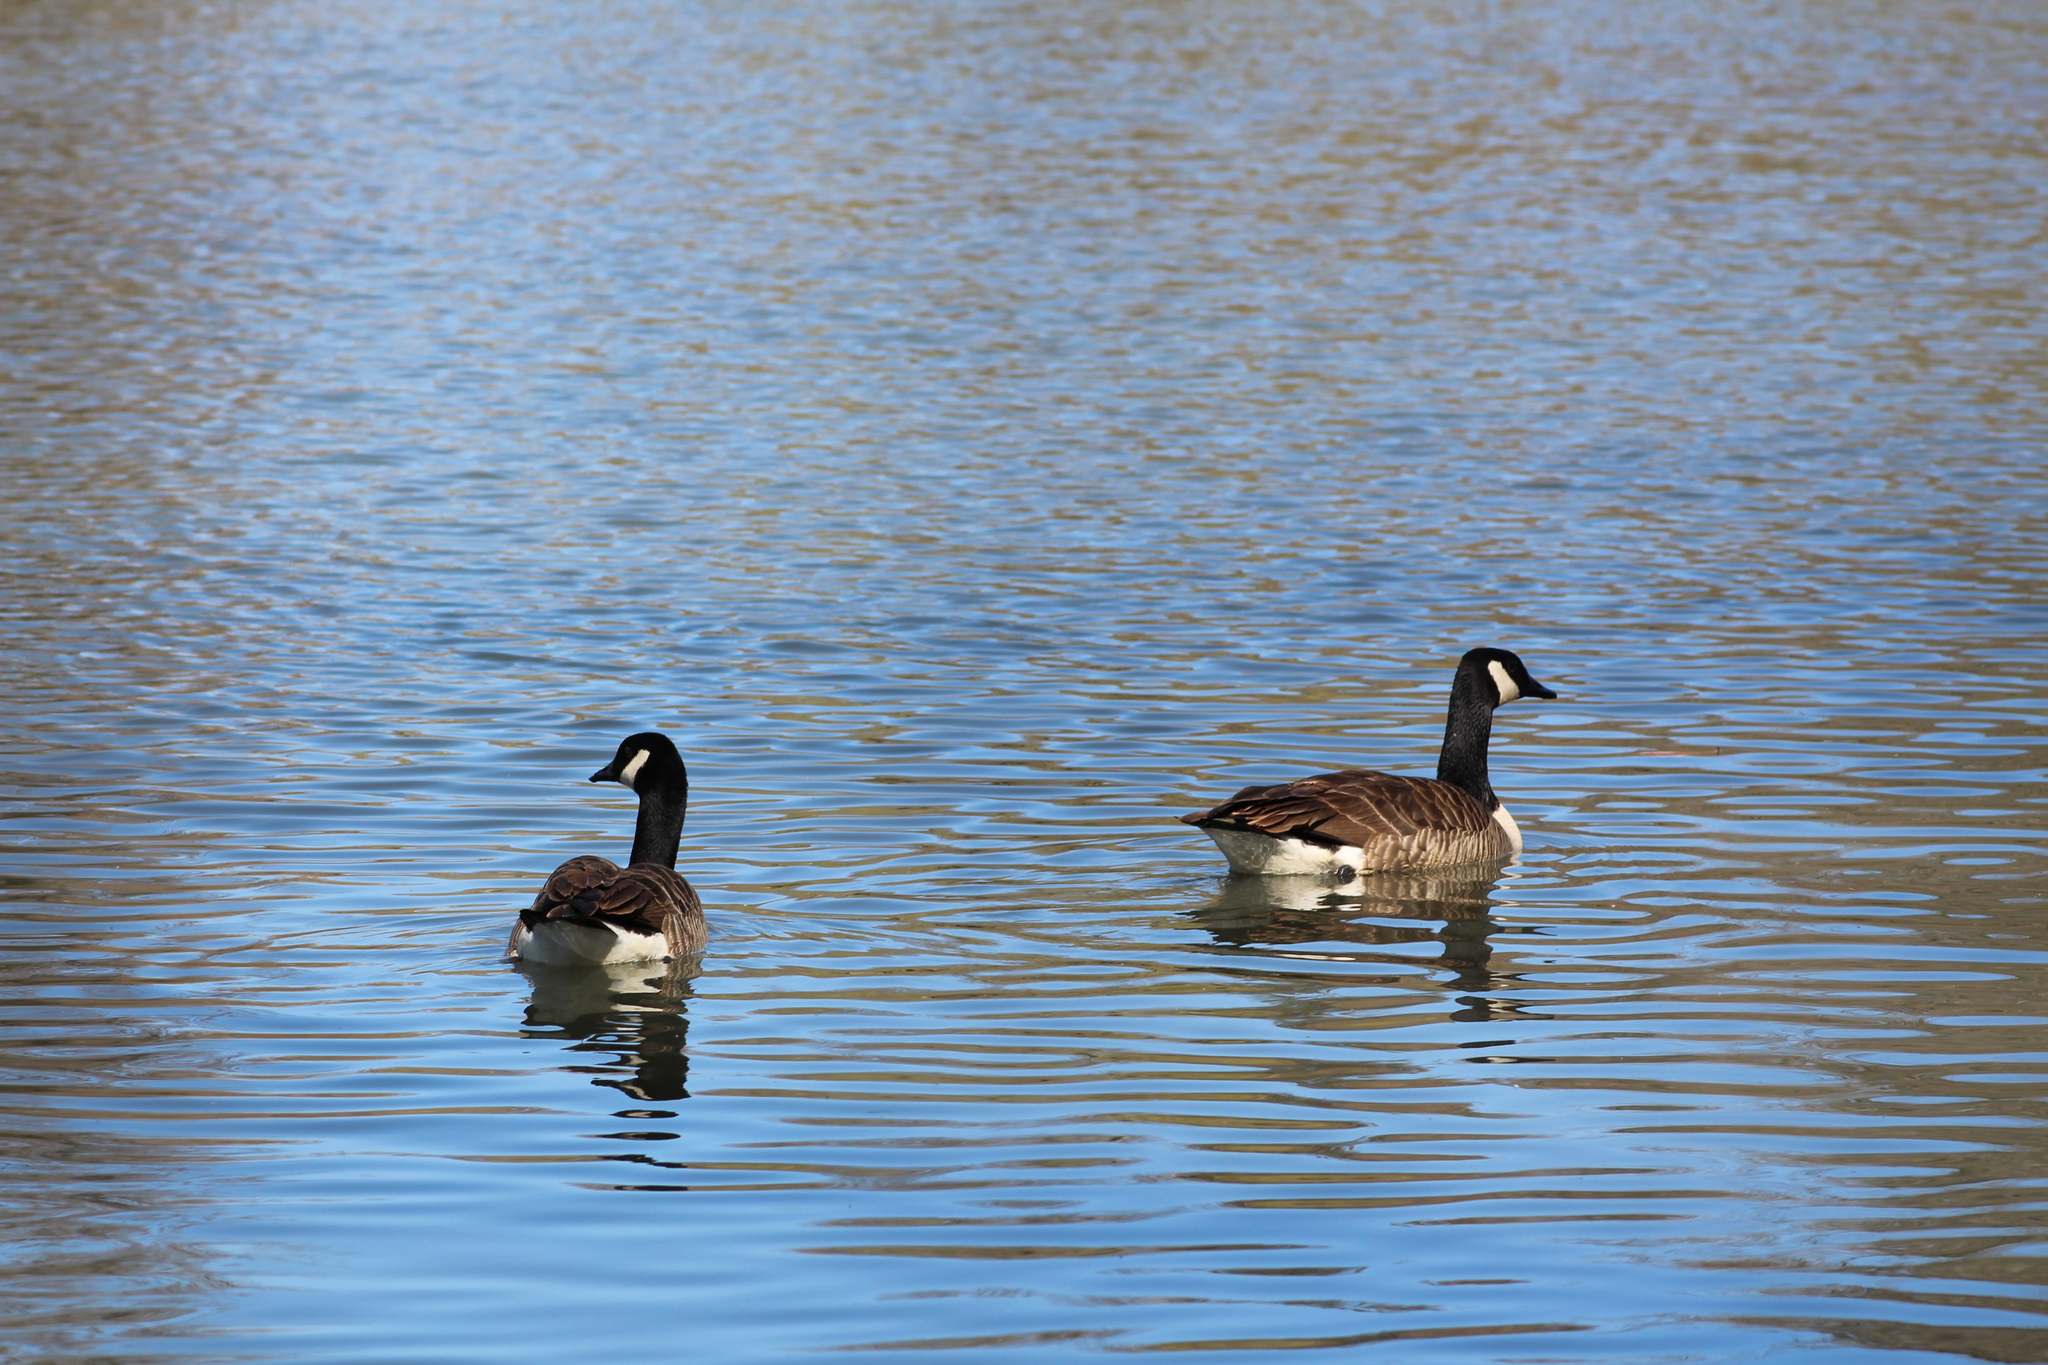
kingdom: Animalia
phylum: Chordata
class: Aves
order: Anseriformes
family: Anatidae
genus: Branta
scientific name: Branta canadensis
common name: Canada goose
